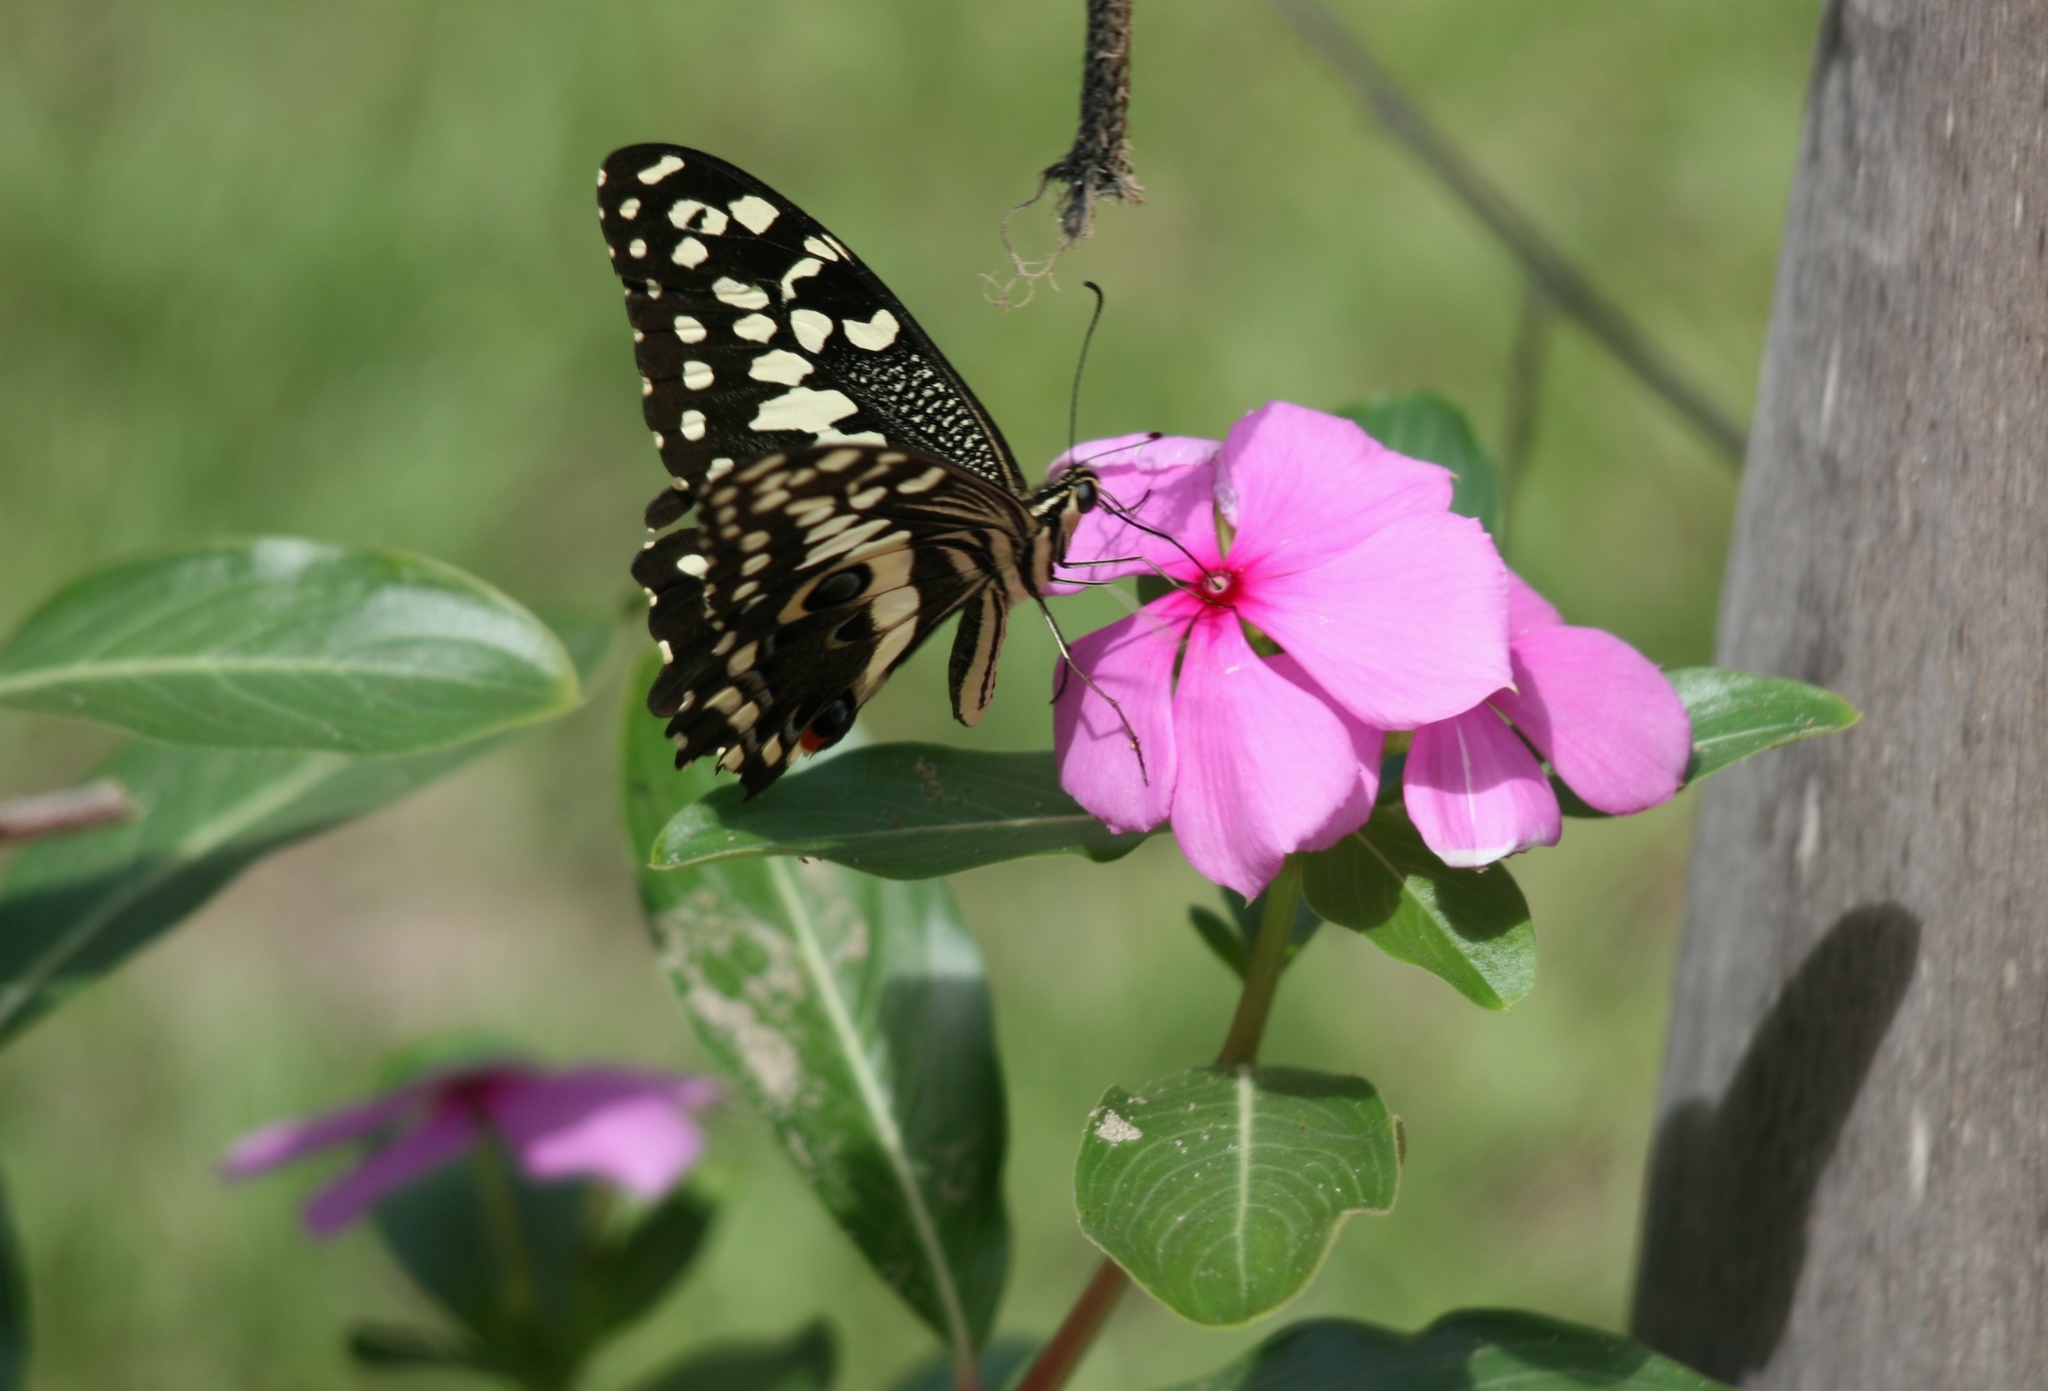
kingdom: Animalia
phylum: Arthropoda
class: Insecta
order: Lepidoptera
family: Papilionidae
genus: Papilio
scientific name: Papilio demodocus
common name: Christmas butterfly
